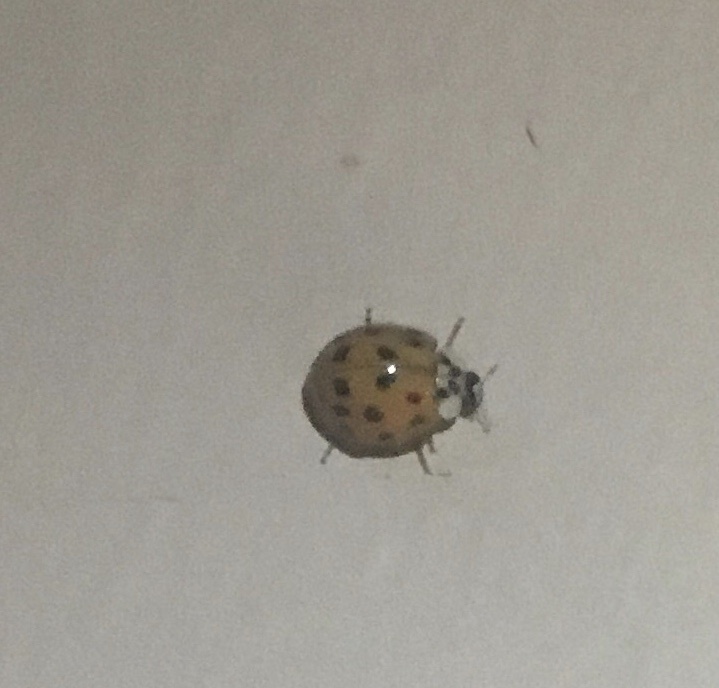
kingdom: Animalia
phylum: Arthropoda
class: Insecta
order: Coleoptera
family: Coccinellidae
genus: Harmonia
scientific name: Harmonia axyridis
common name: Harlequin ladybird
